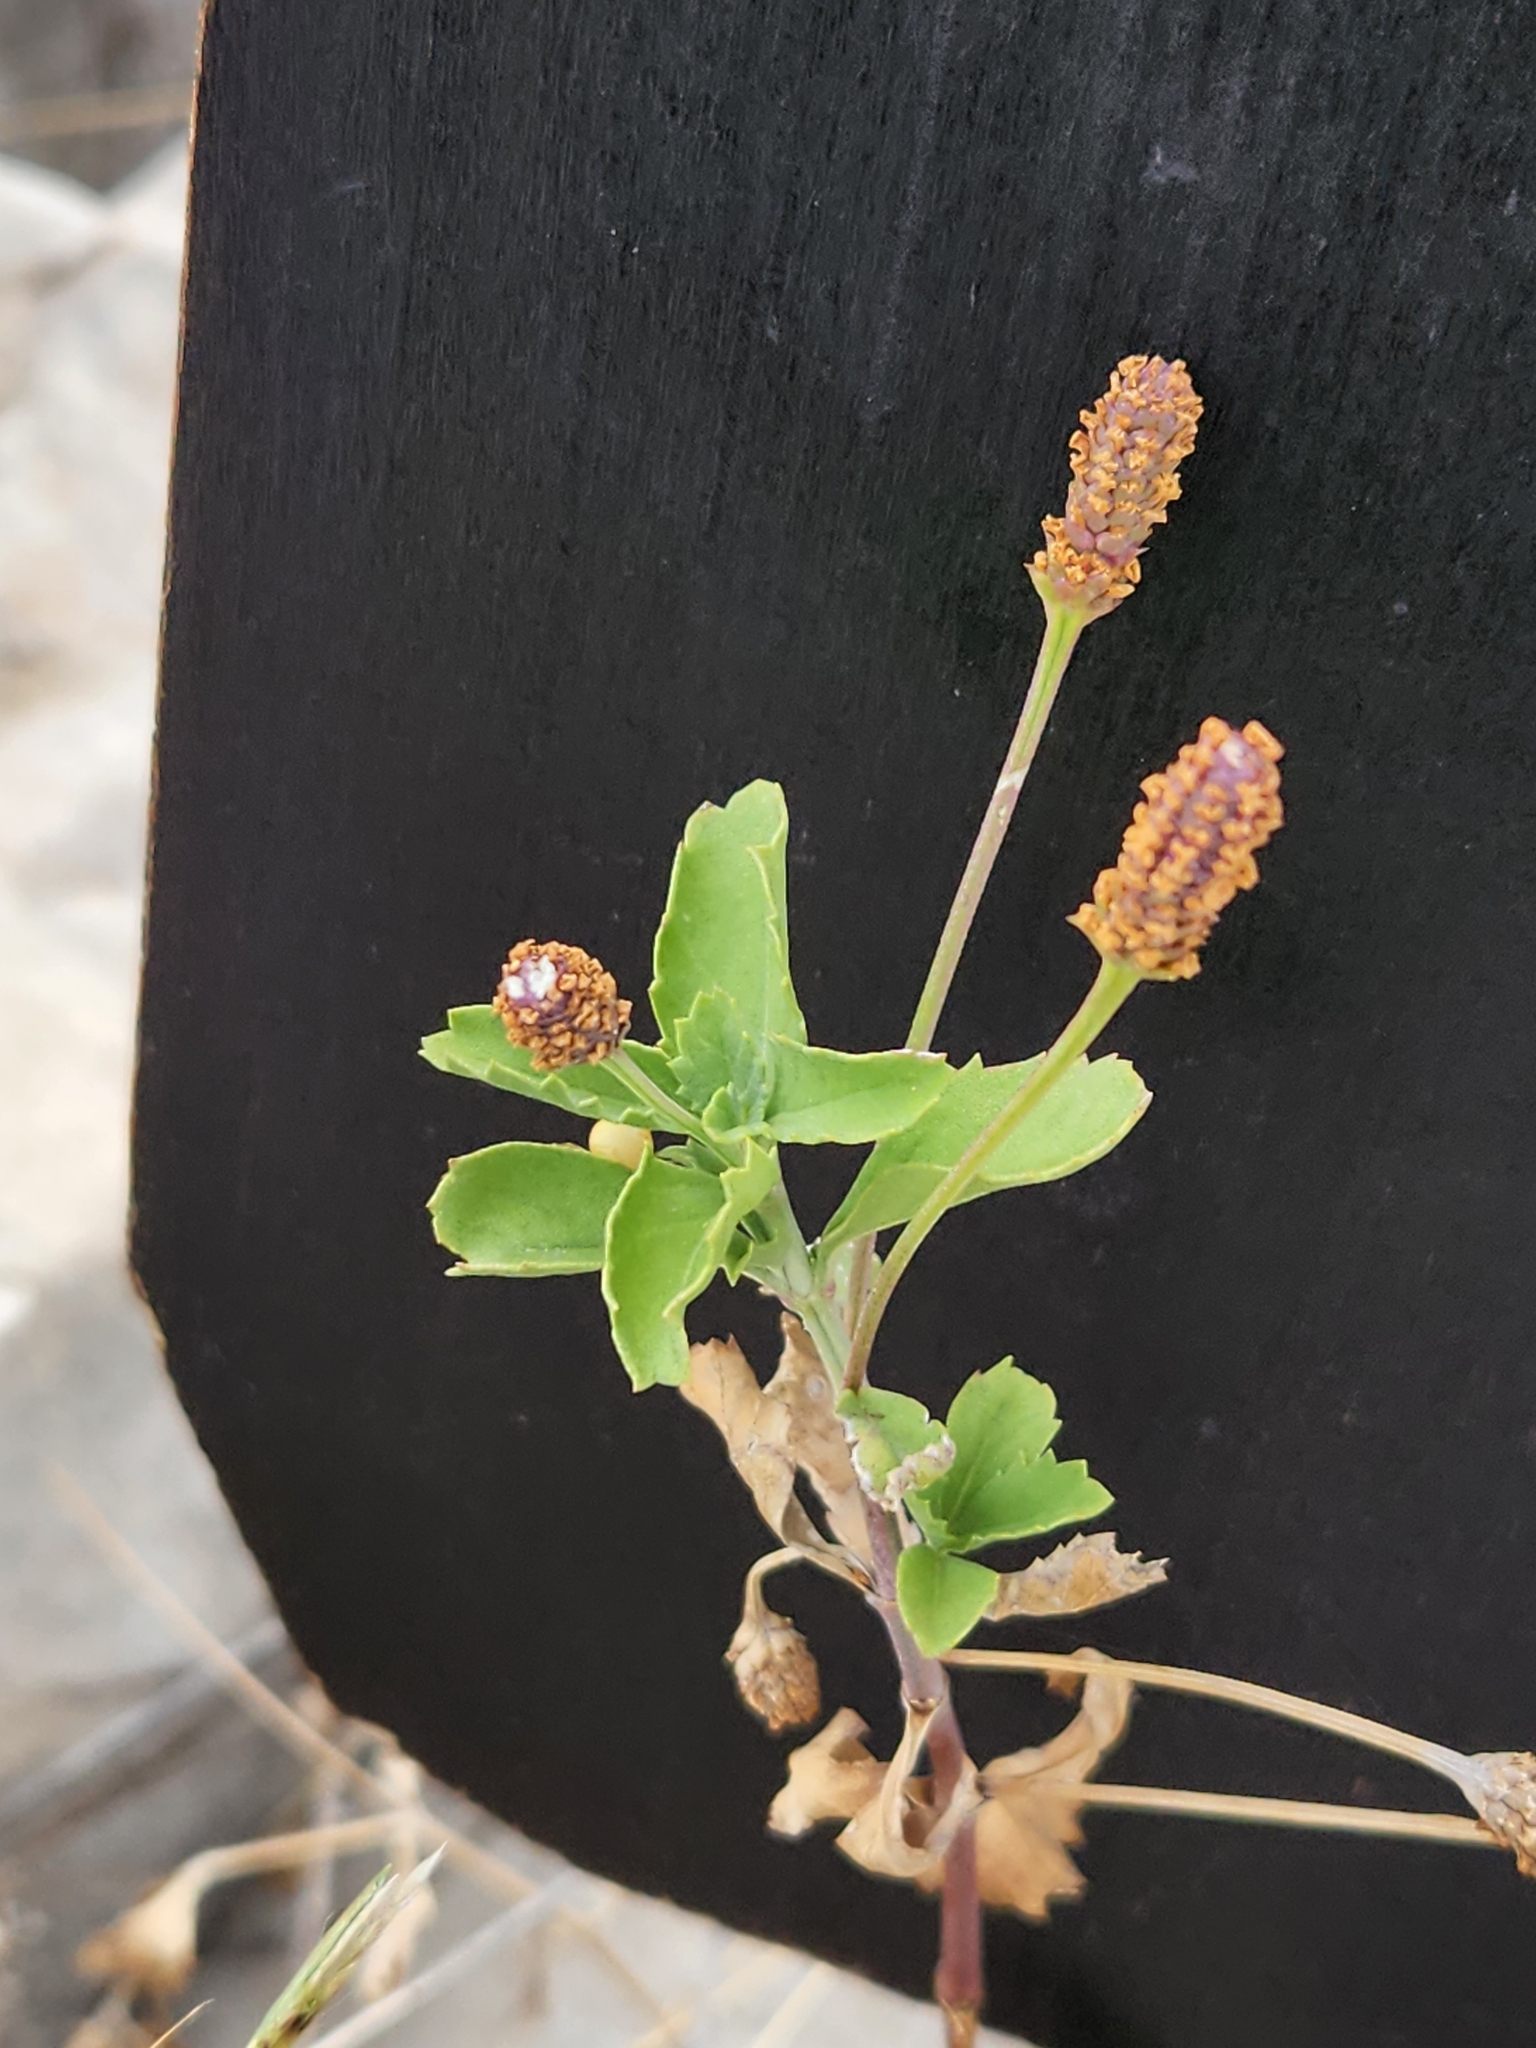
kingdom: Plantae
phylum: Tracheophyta
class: Magnoliopsida
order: Lamiales
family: Verbenaceae
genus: Phyla
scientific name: Phyla nodiflora
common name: Frogfruit
